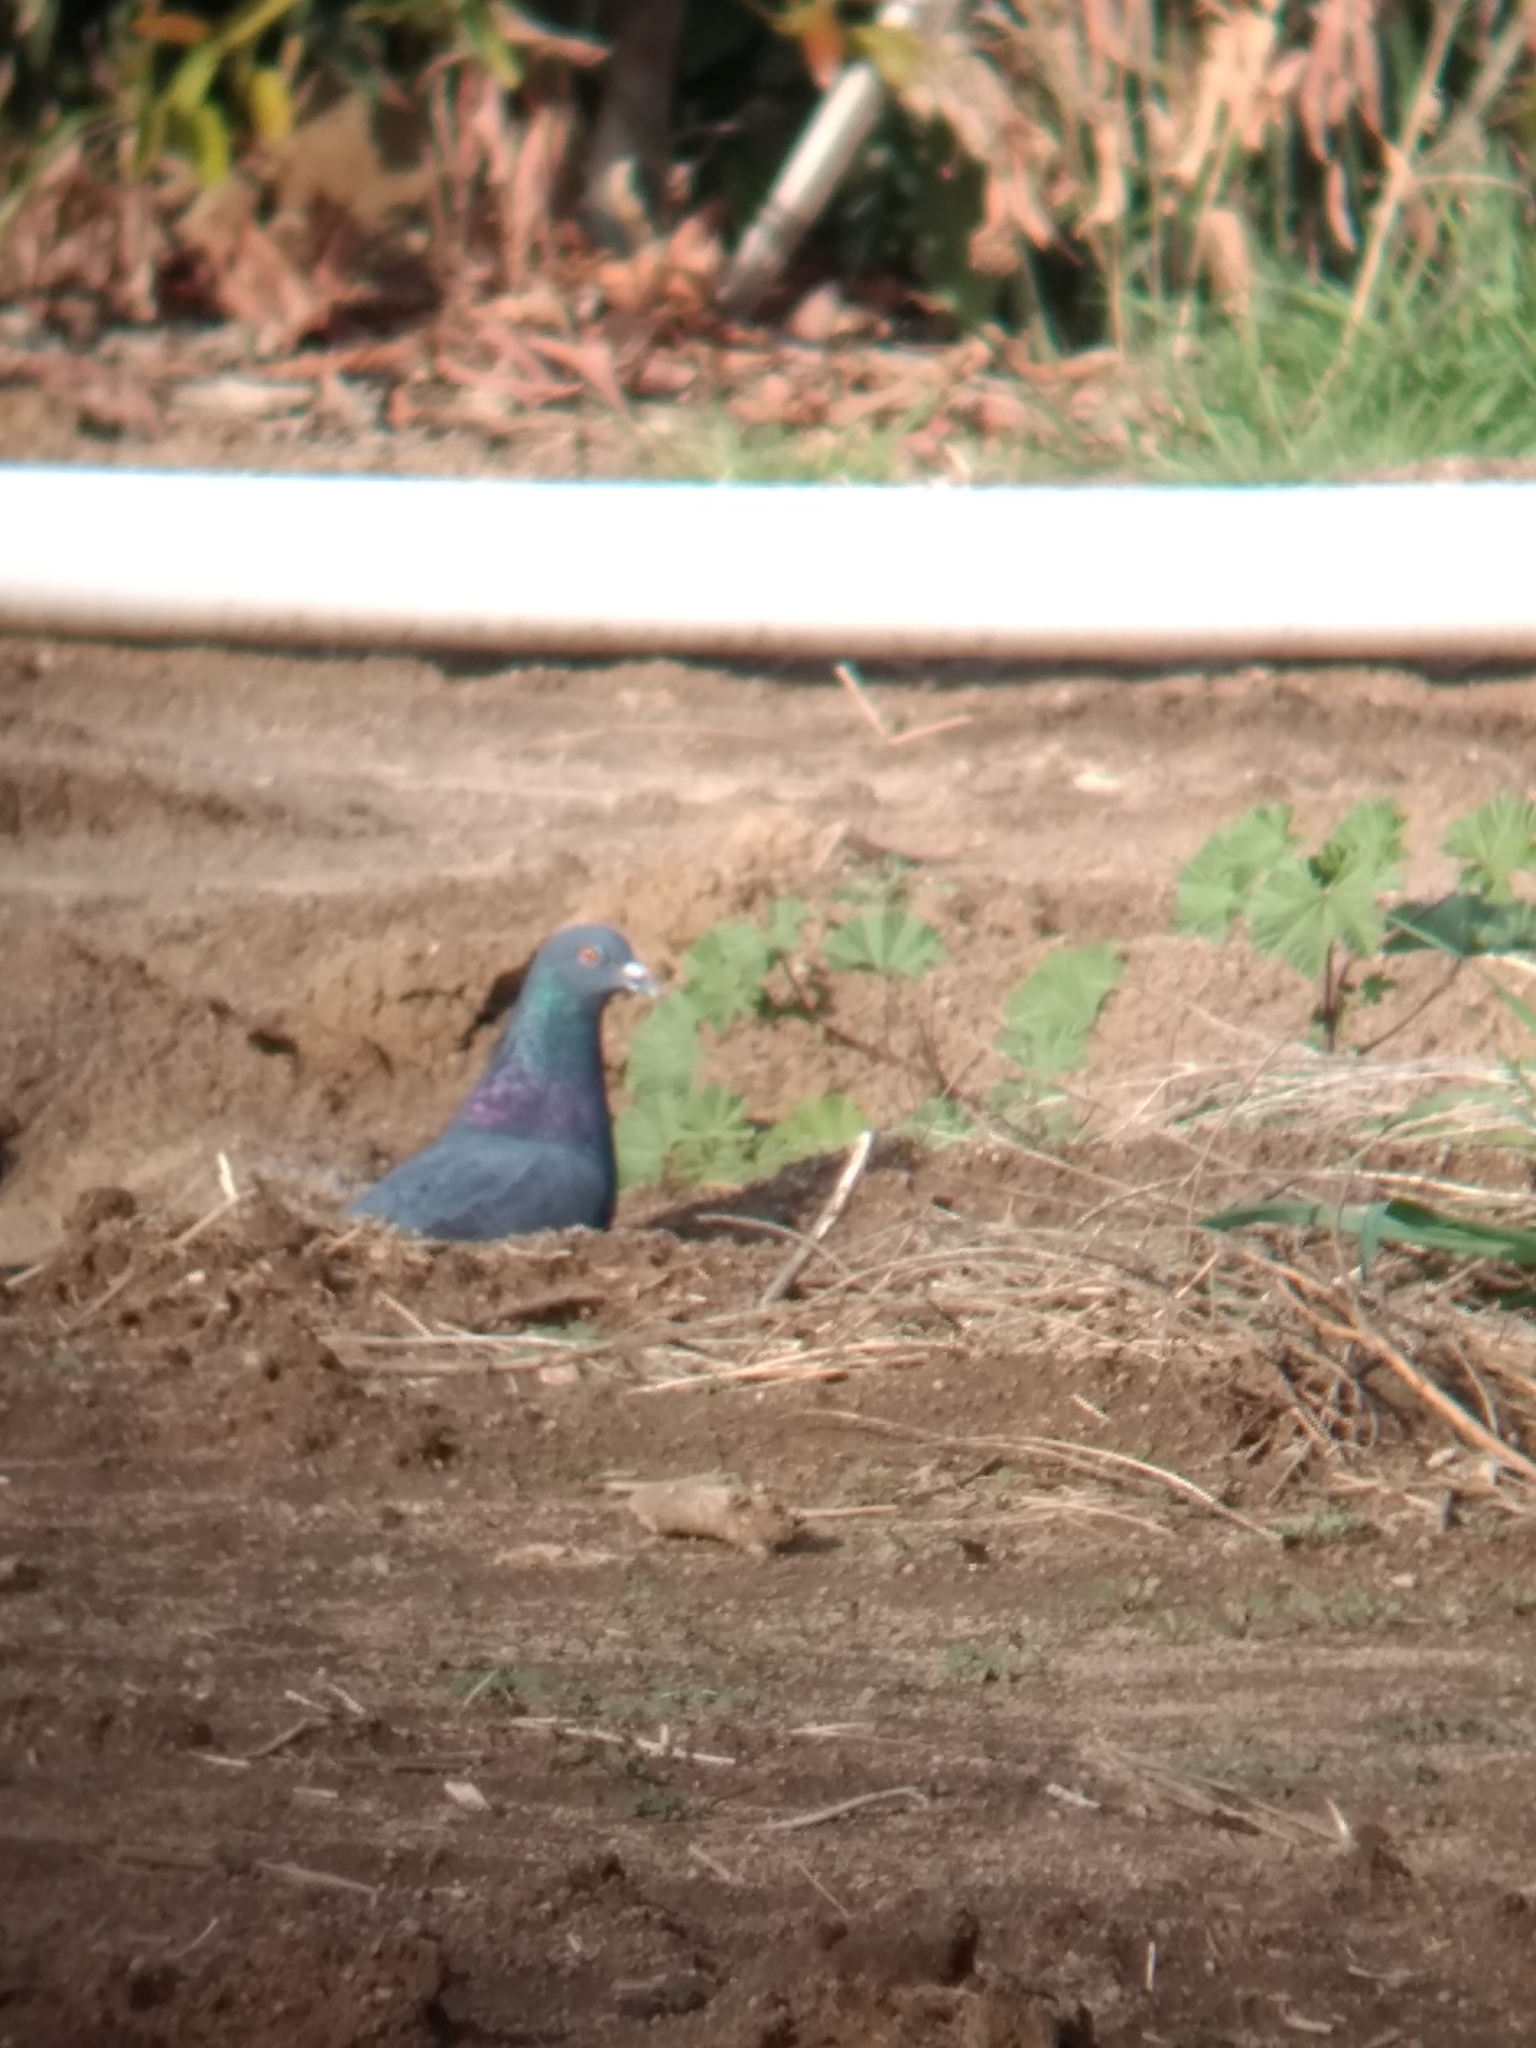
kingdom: Animalia
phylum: Chordata
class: Aves
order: Columbiformes
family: Columbidae
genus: Columba
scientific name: Columba livia
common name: Rock pigeon
